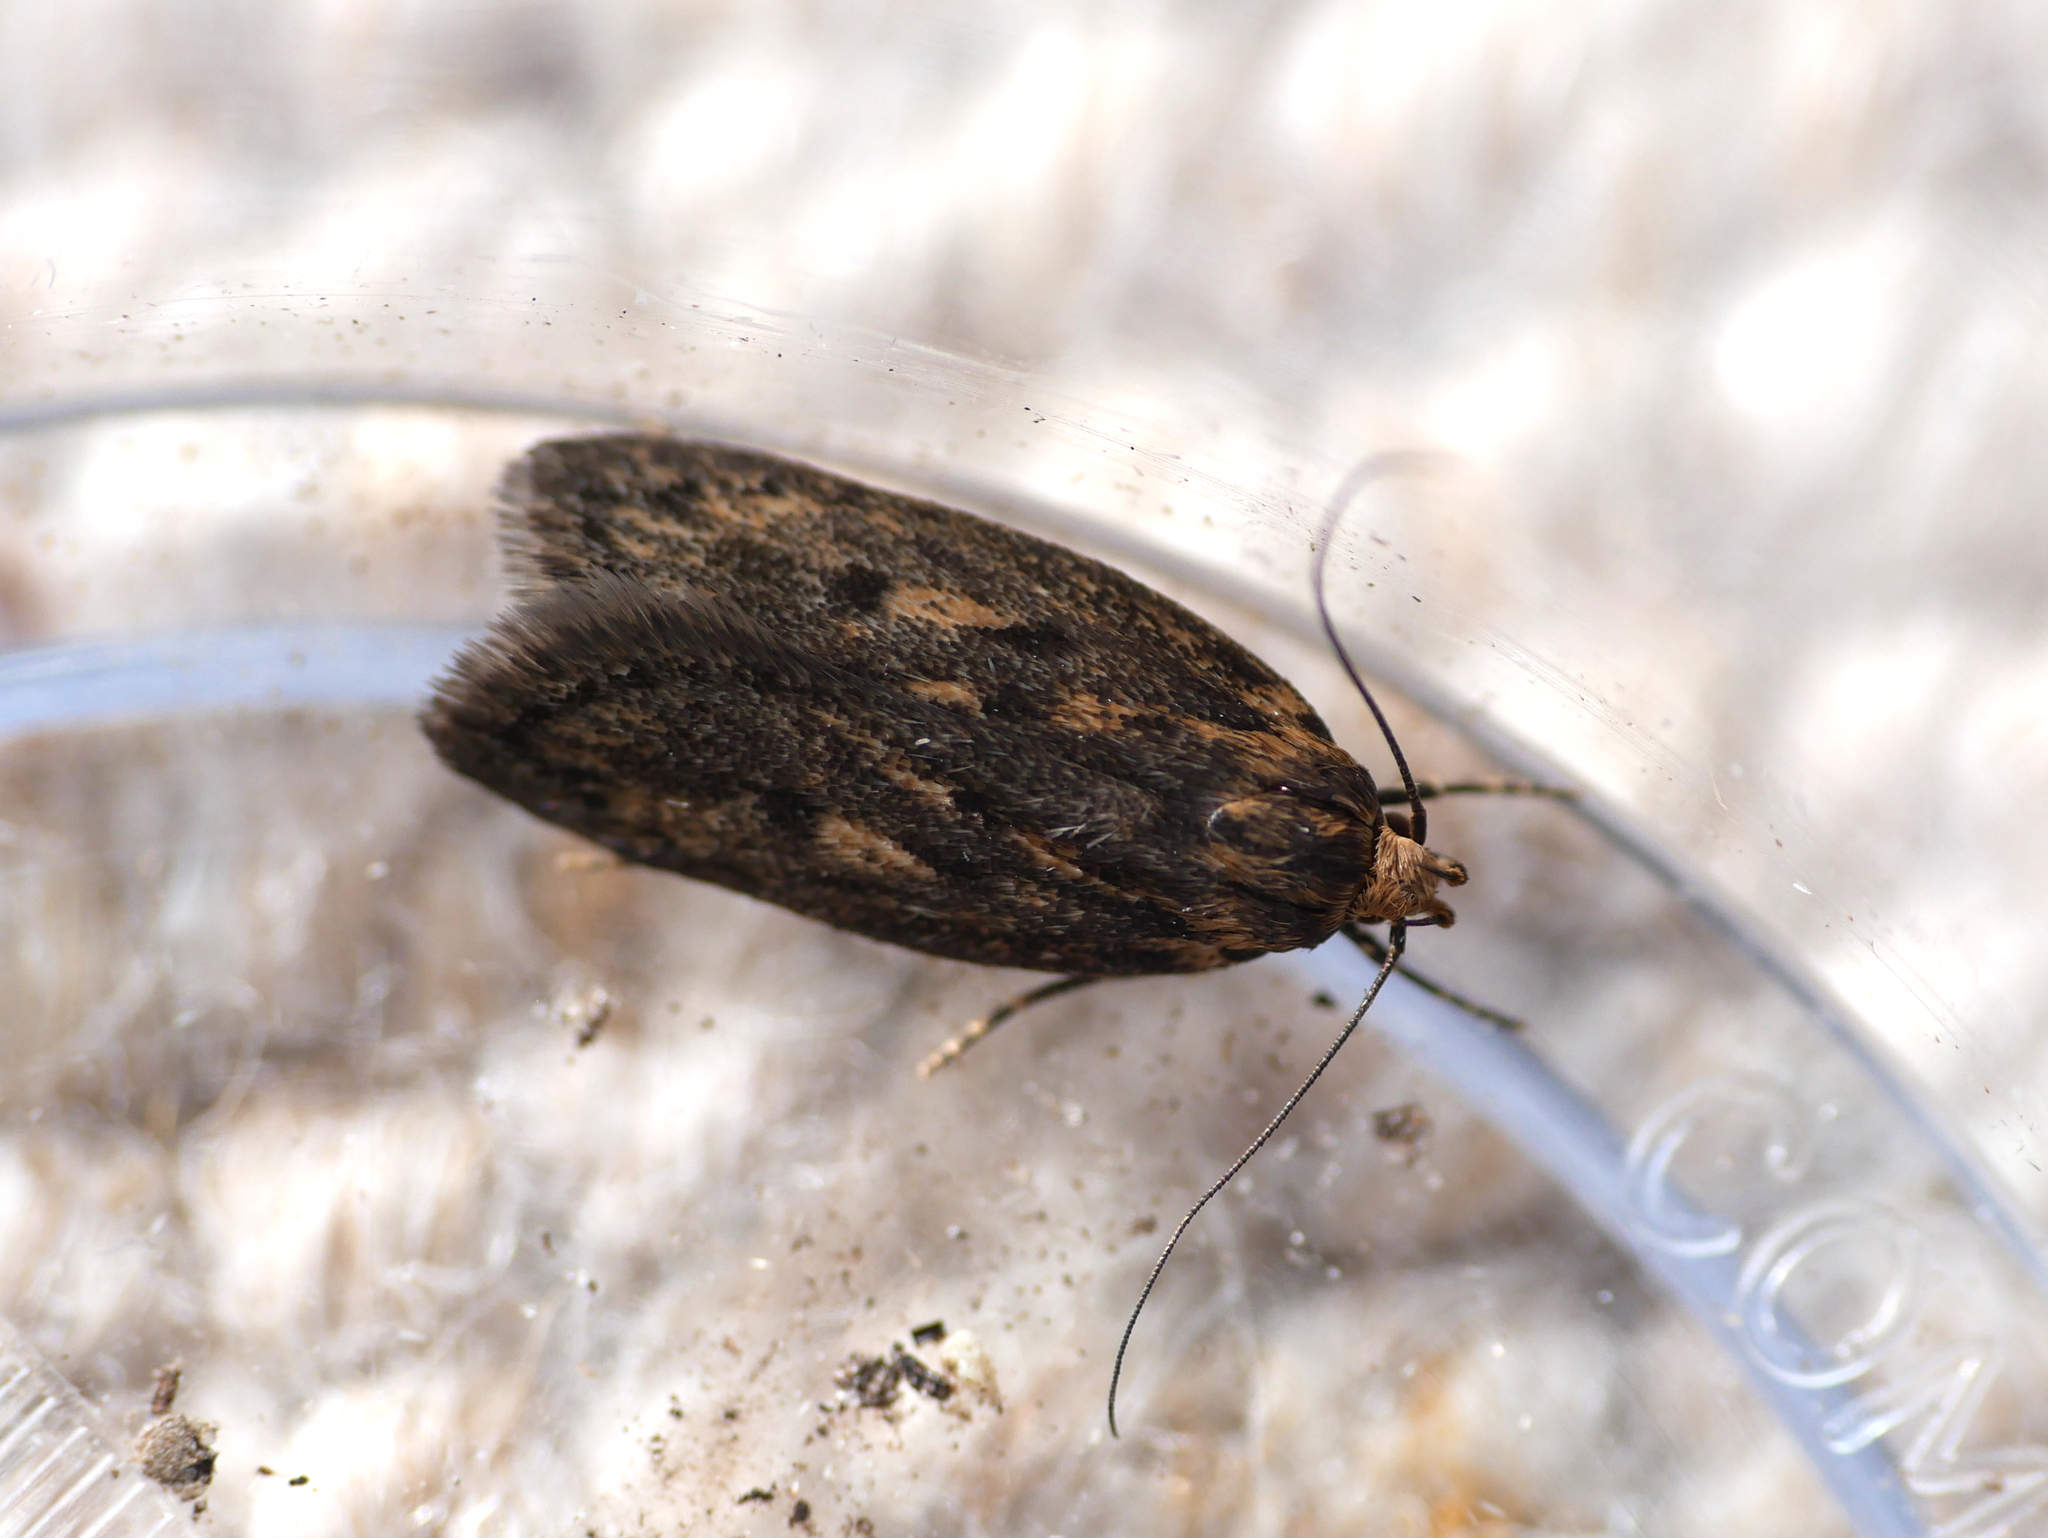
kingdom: Animalia
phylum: Arthropoda
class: Insecta
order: Lepidoptera
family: Oecophoridae
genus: Hofmannophila
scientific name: Hofmannophila pseudospretella
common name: Brown house moth
